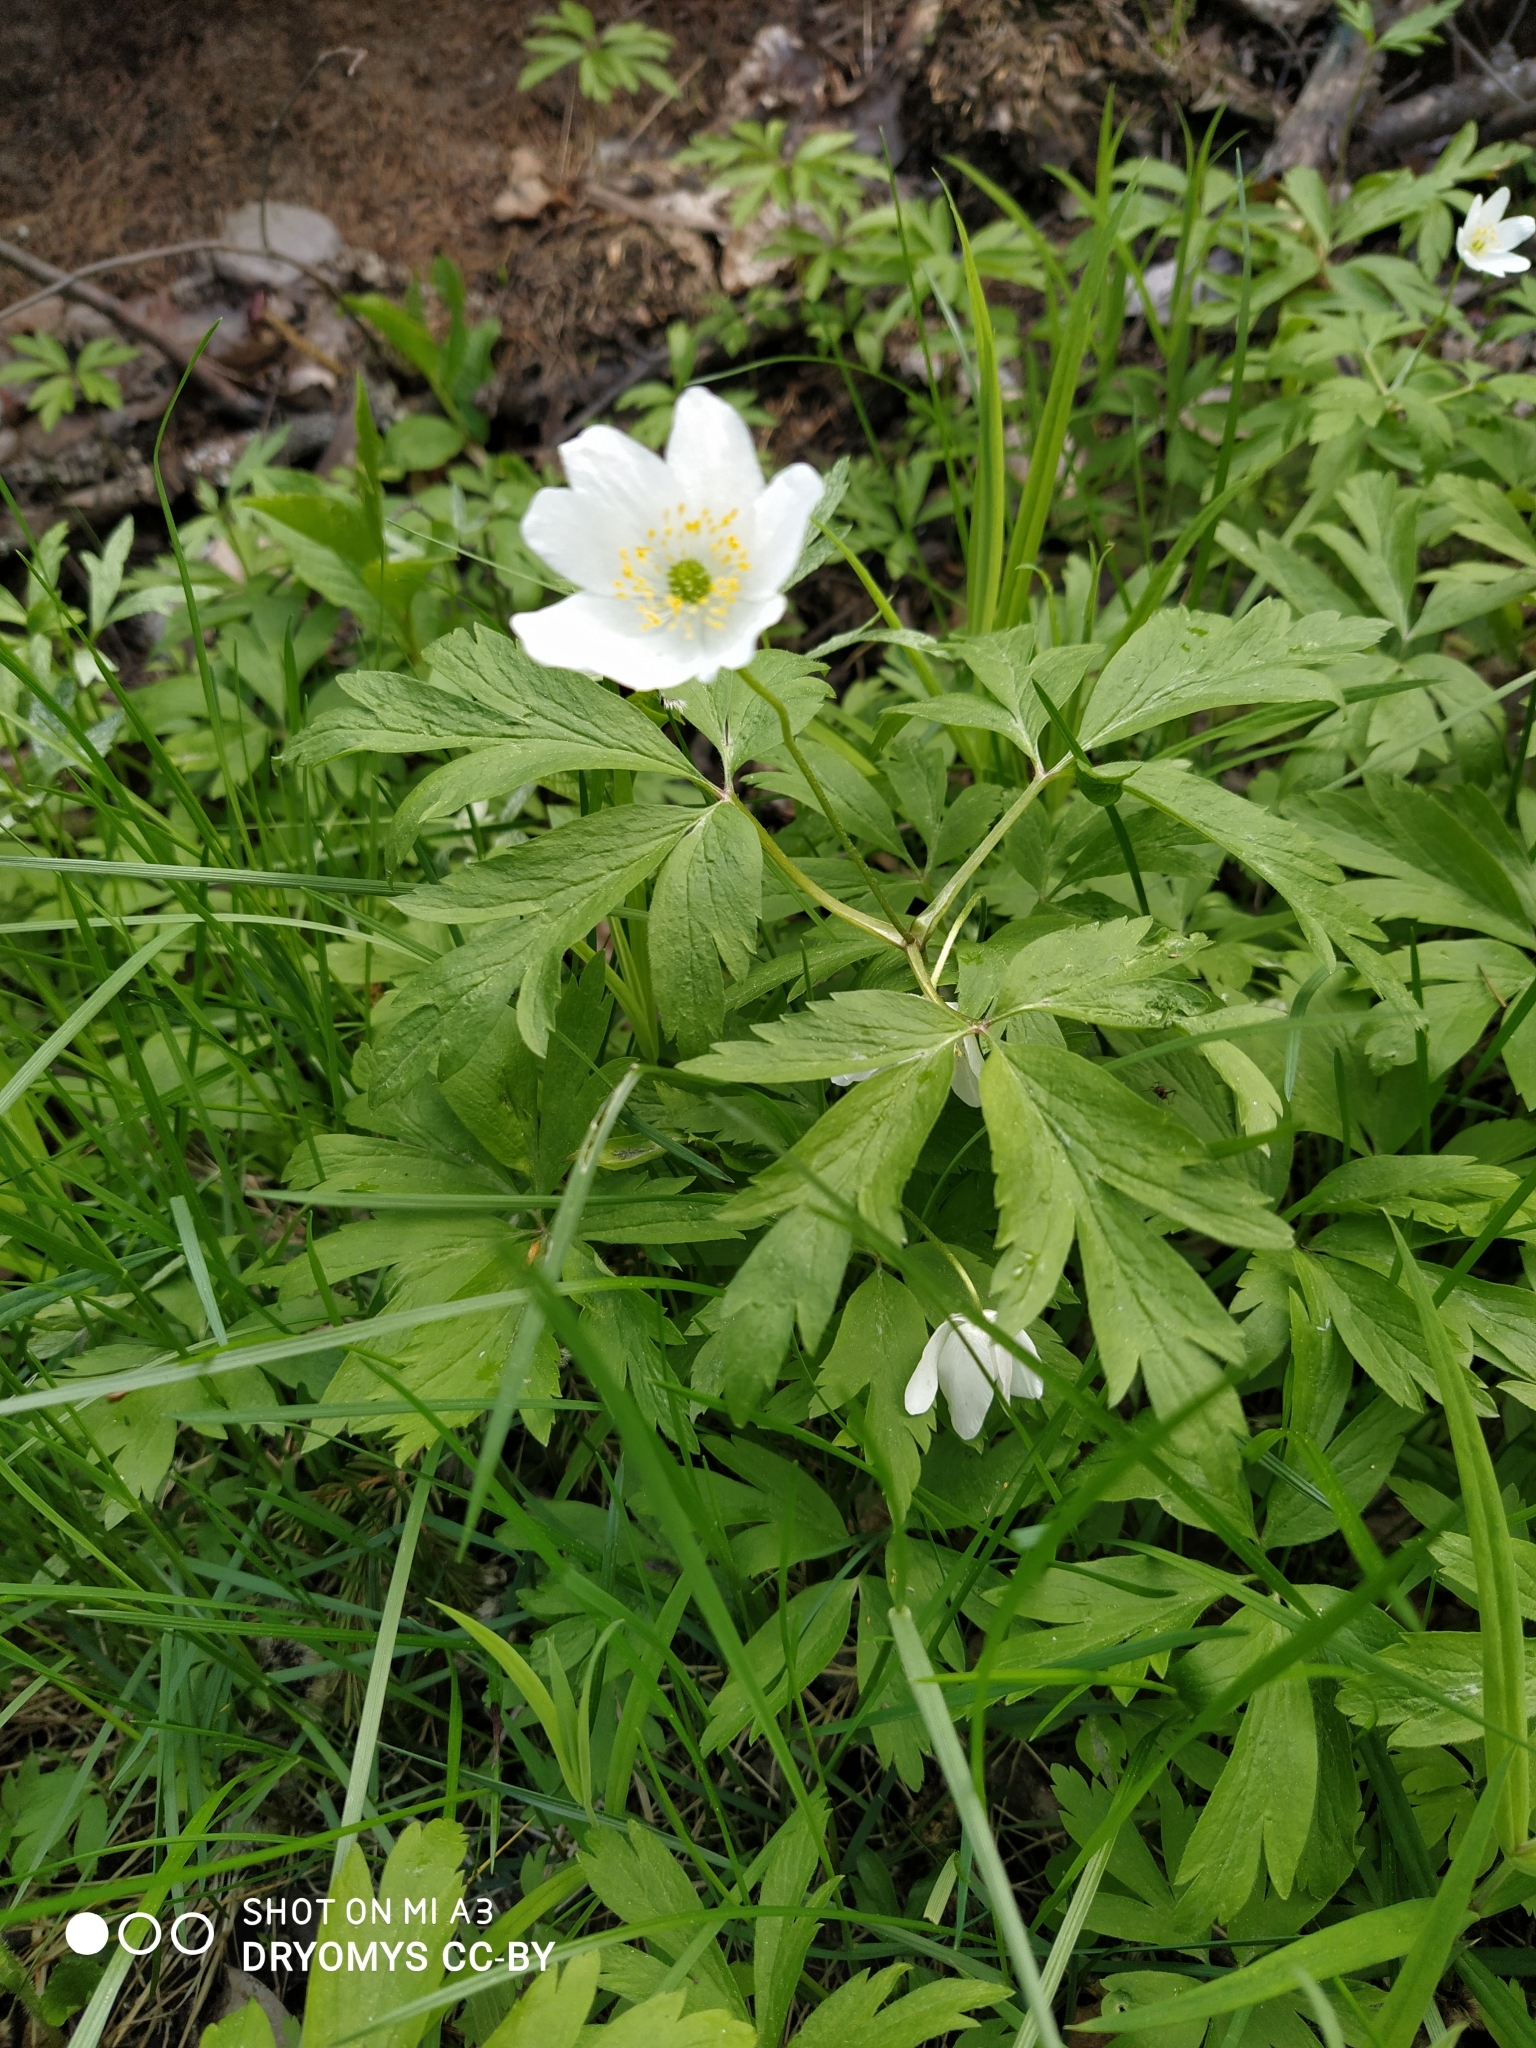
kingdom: Plantae
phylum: Tracheophyta
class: Magnoliopsida
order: Ranunculales
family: Ranunculaceae
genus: Anemone
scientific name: Anemone nemorosa
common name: Wood anemone
